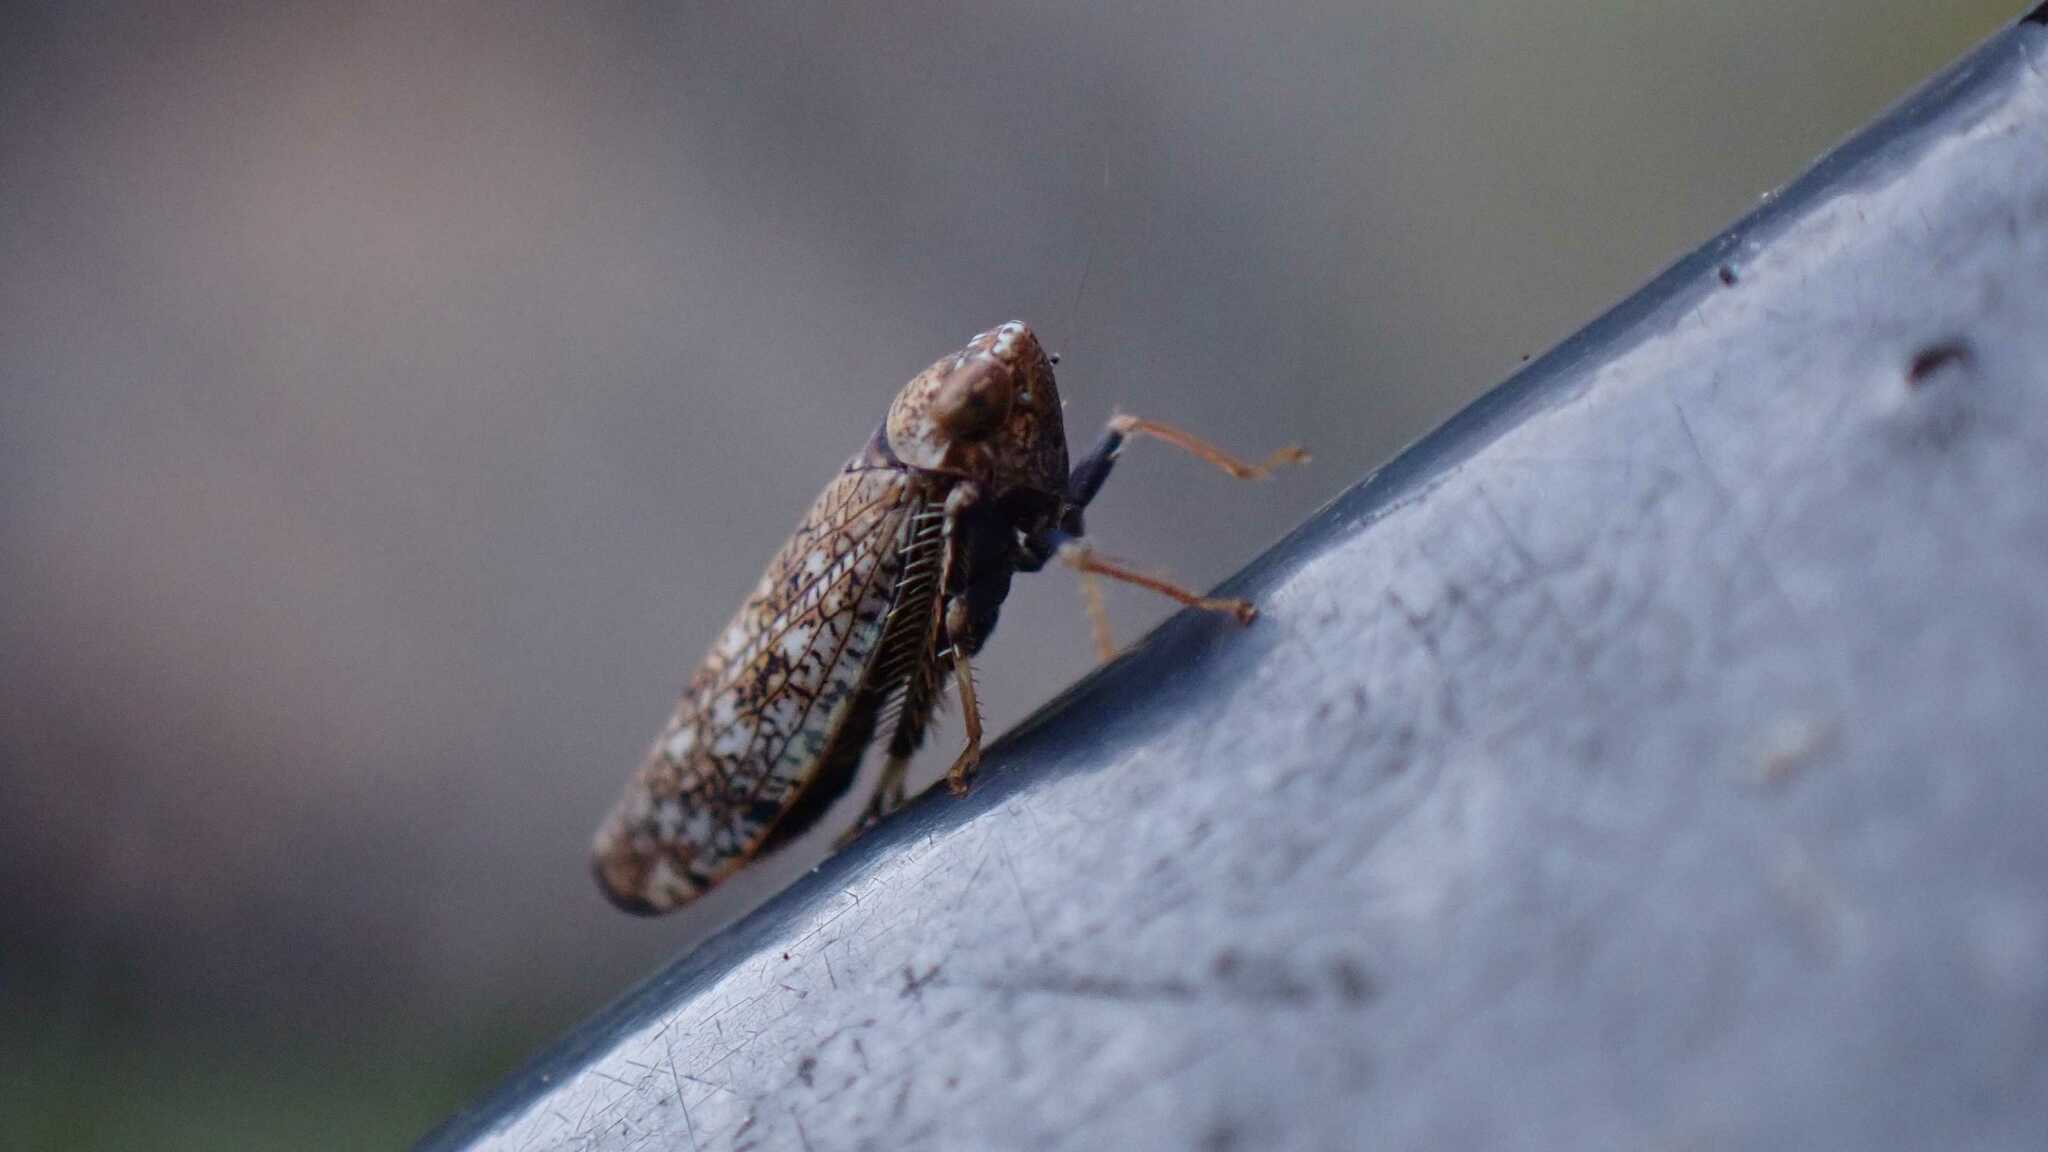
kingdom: Animalia
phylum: Arthropoda
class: Insecta
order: Hemiptera
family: Cicadellidae
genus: Orientus
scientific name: Orientus ishidae
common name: Japanese leafhopper
